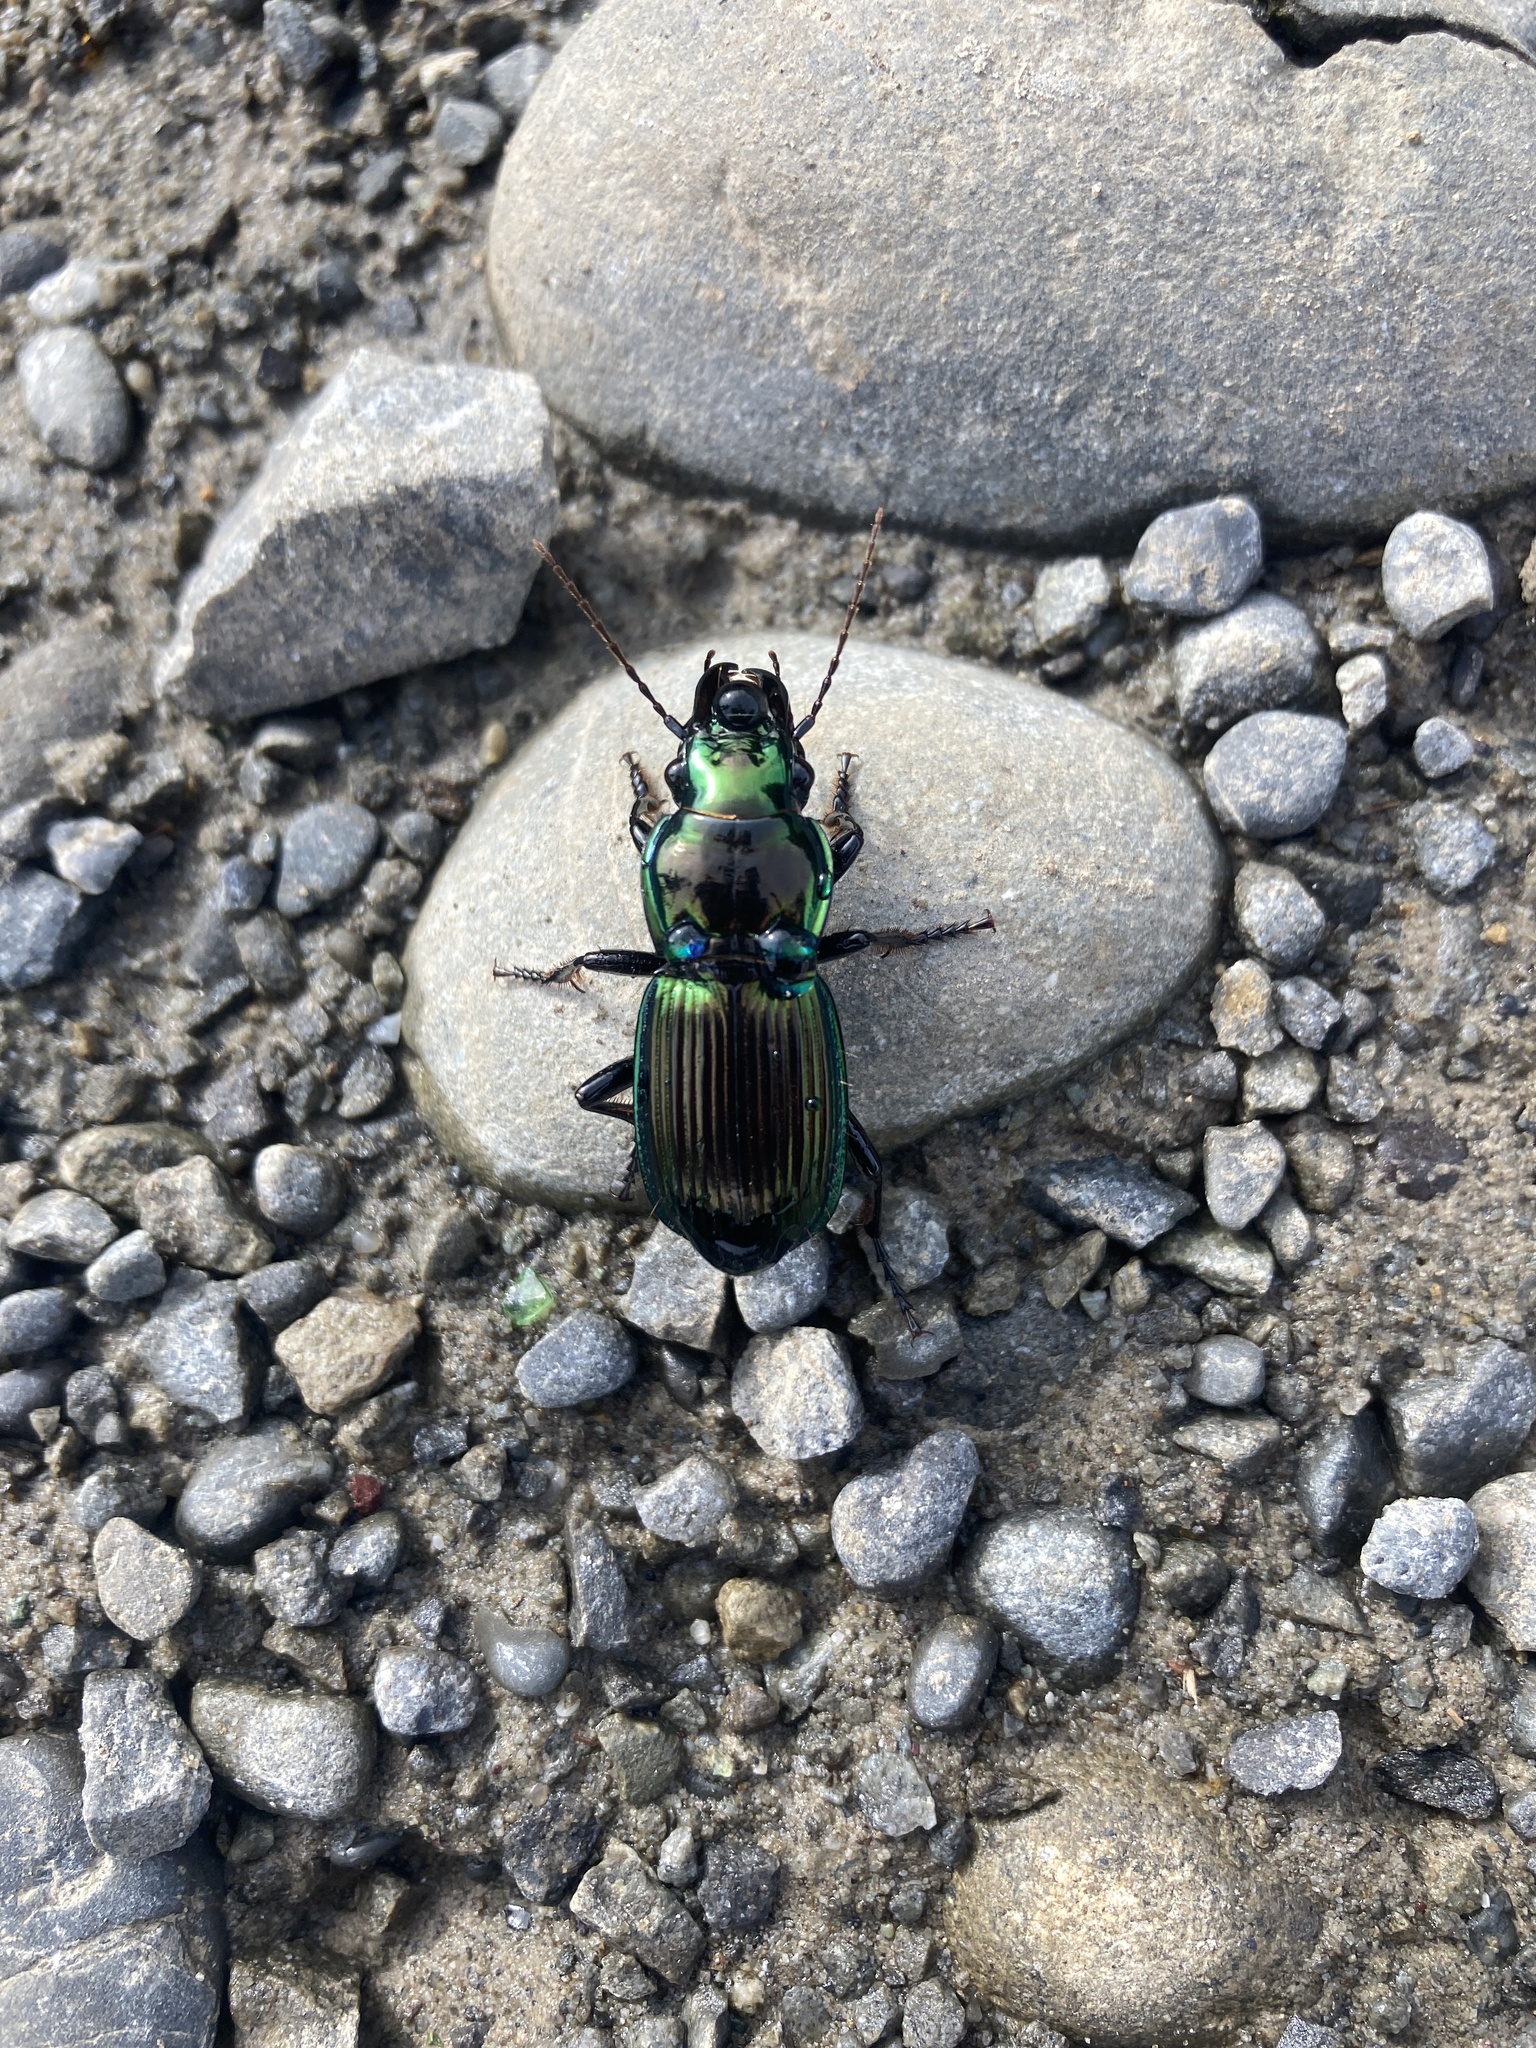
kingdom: Animalia
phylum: Arthropoda
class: Insecta
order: Coleoptera
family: Carabidae
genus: Megadromus
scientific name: Megadromus antarcticus
